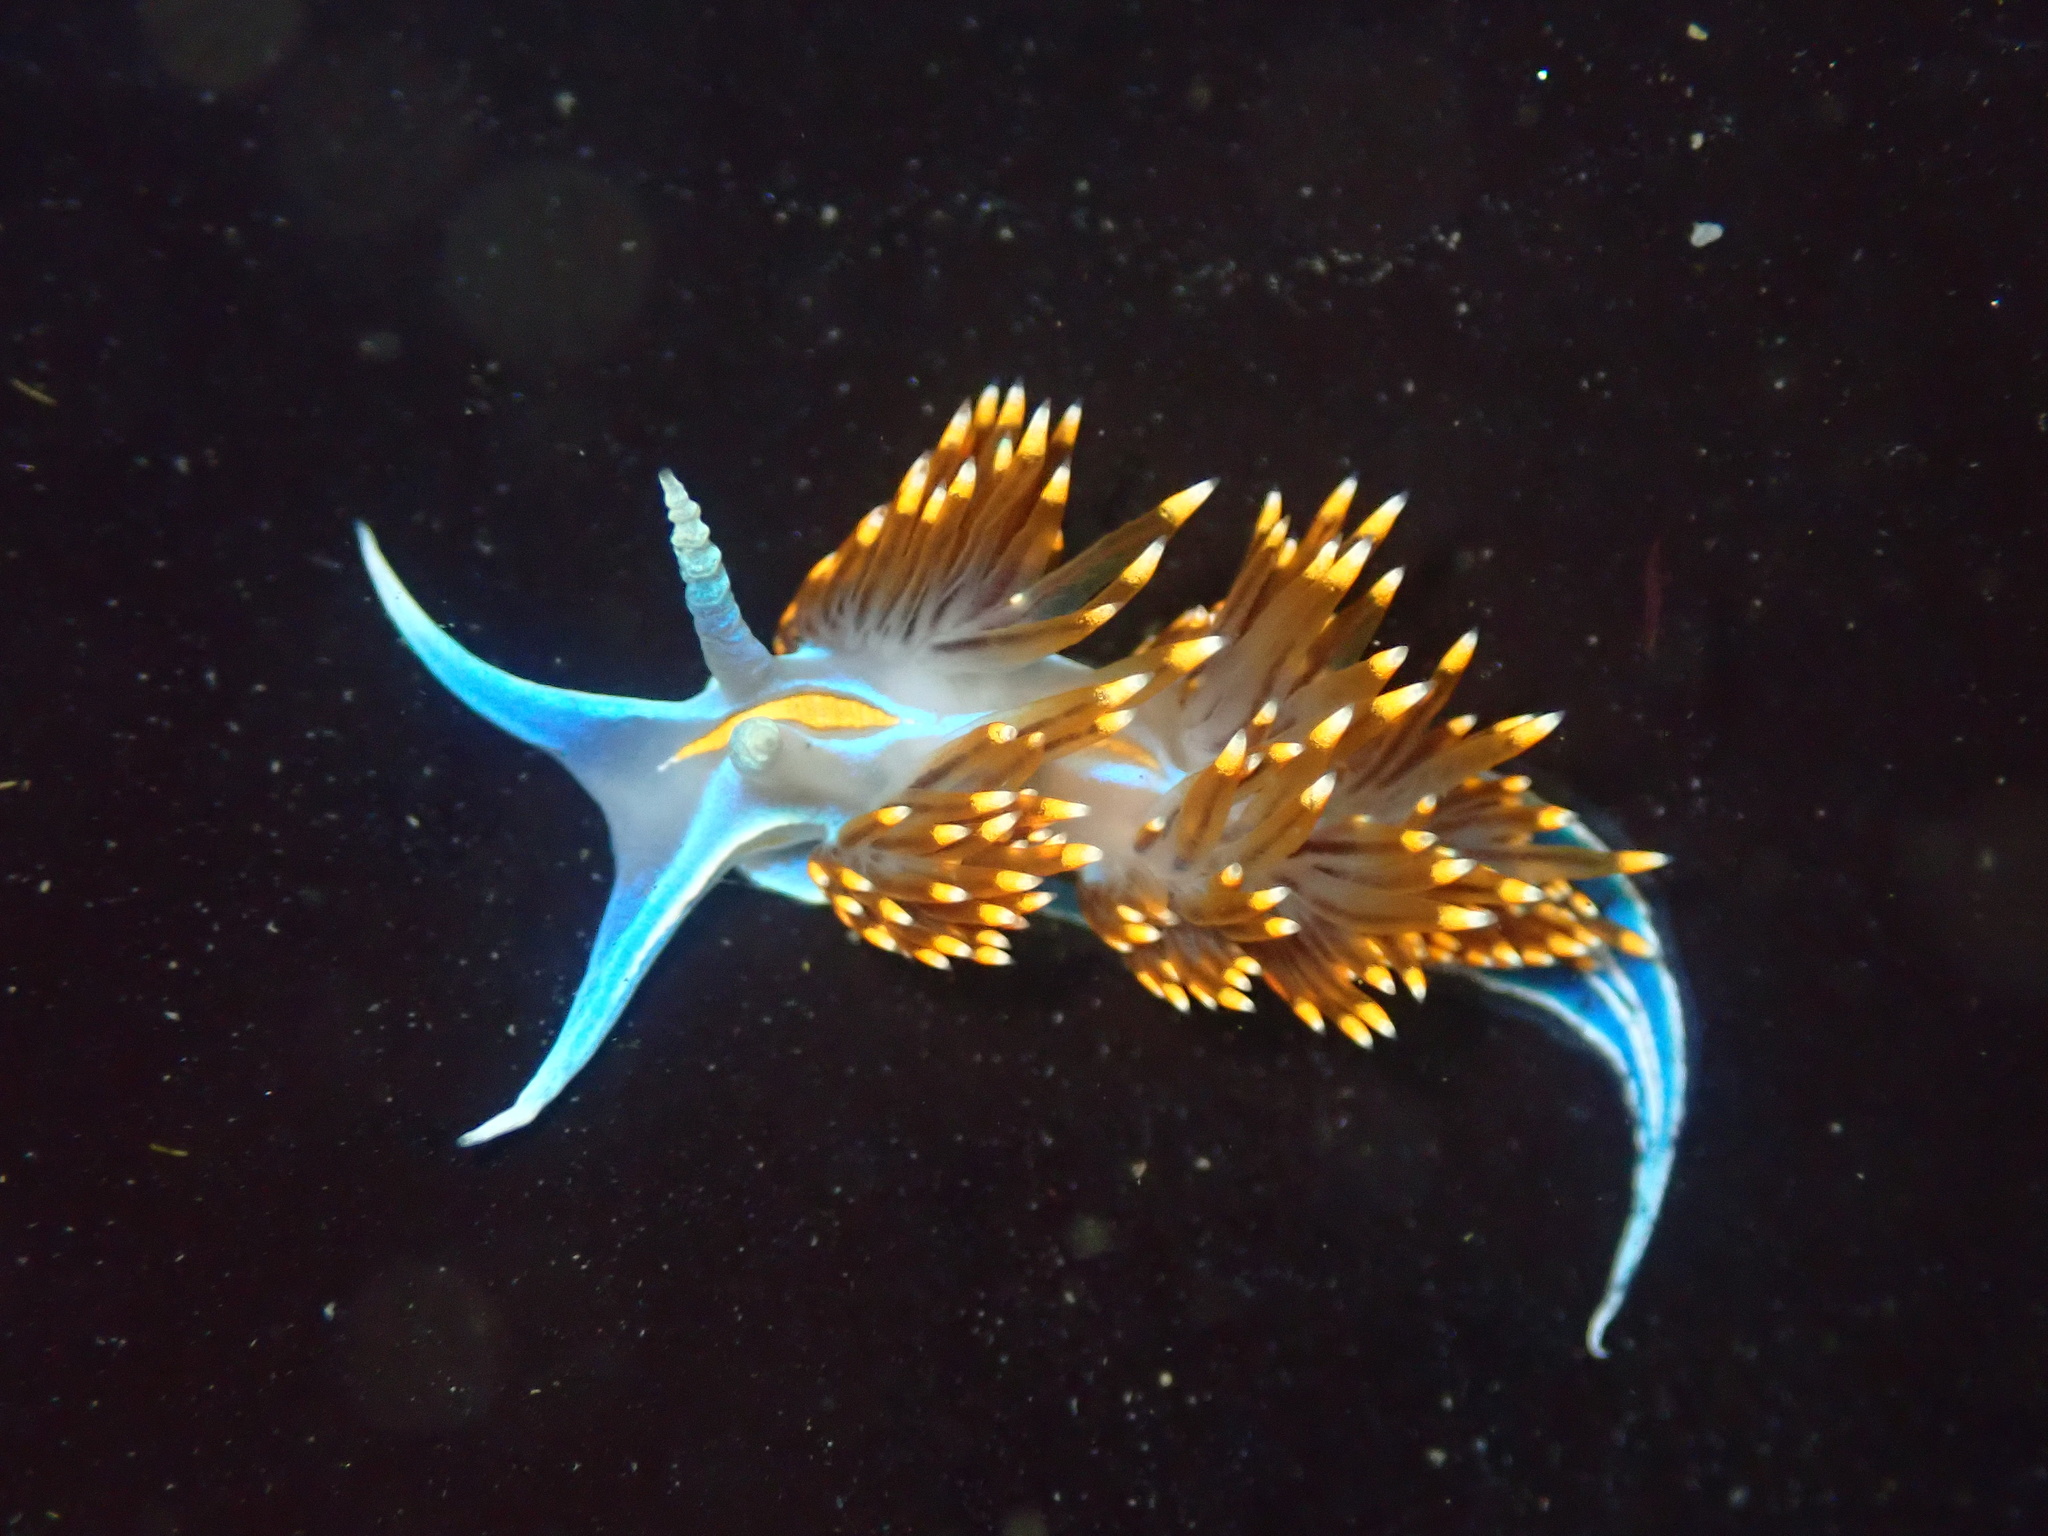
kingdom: Animalia
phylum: Mollusca
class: Gastropoda
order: Nudibranchia
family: Myrrhinidae
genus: Hermissenda
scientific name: Hermissenda opalescens
